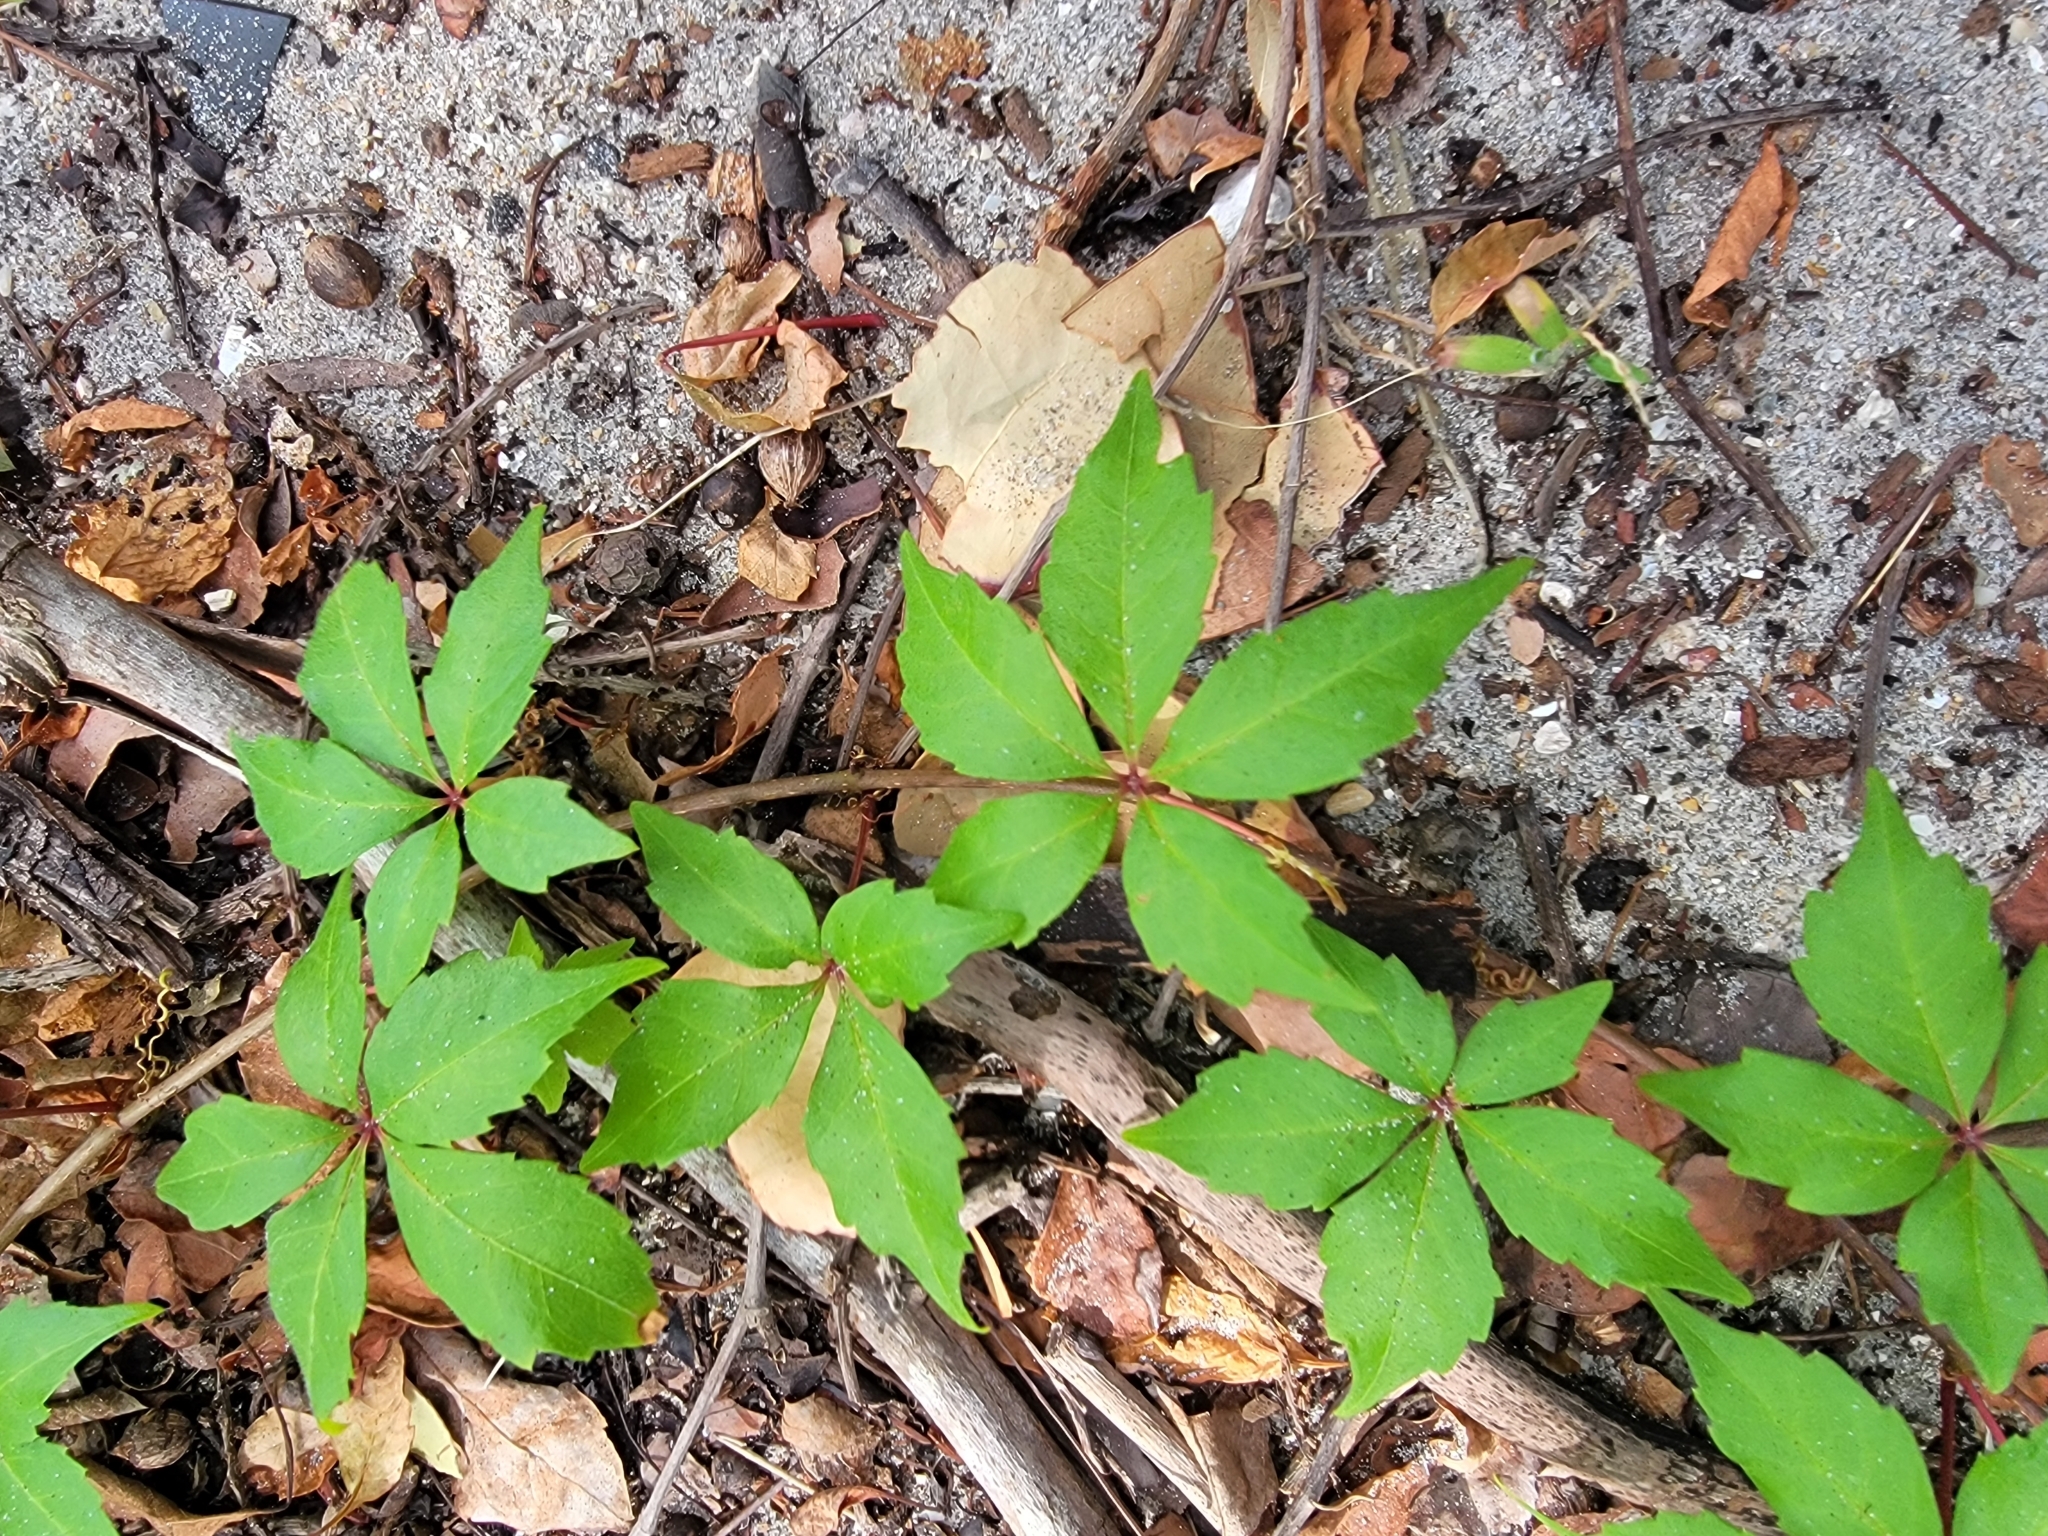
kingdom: Plantae
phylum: Tracheophyta
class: Magnoliopsida
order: Vitales
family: Vitaceae
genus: Parthenocissus
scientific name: Parthenocissus quinquefolia
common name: Virginia-creeper
